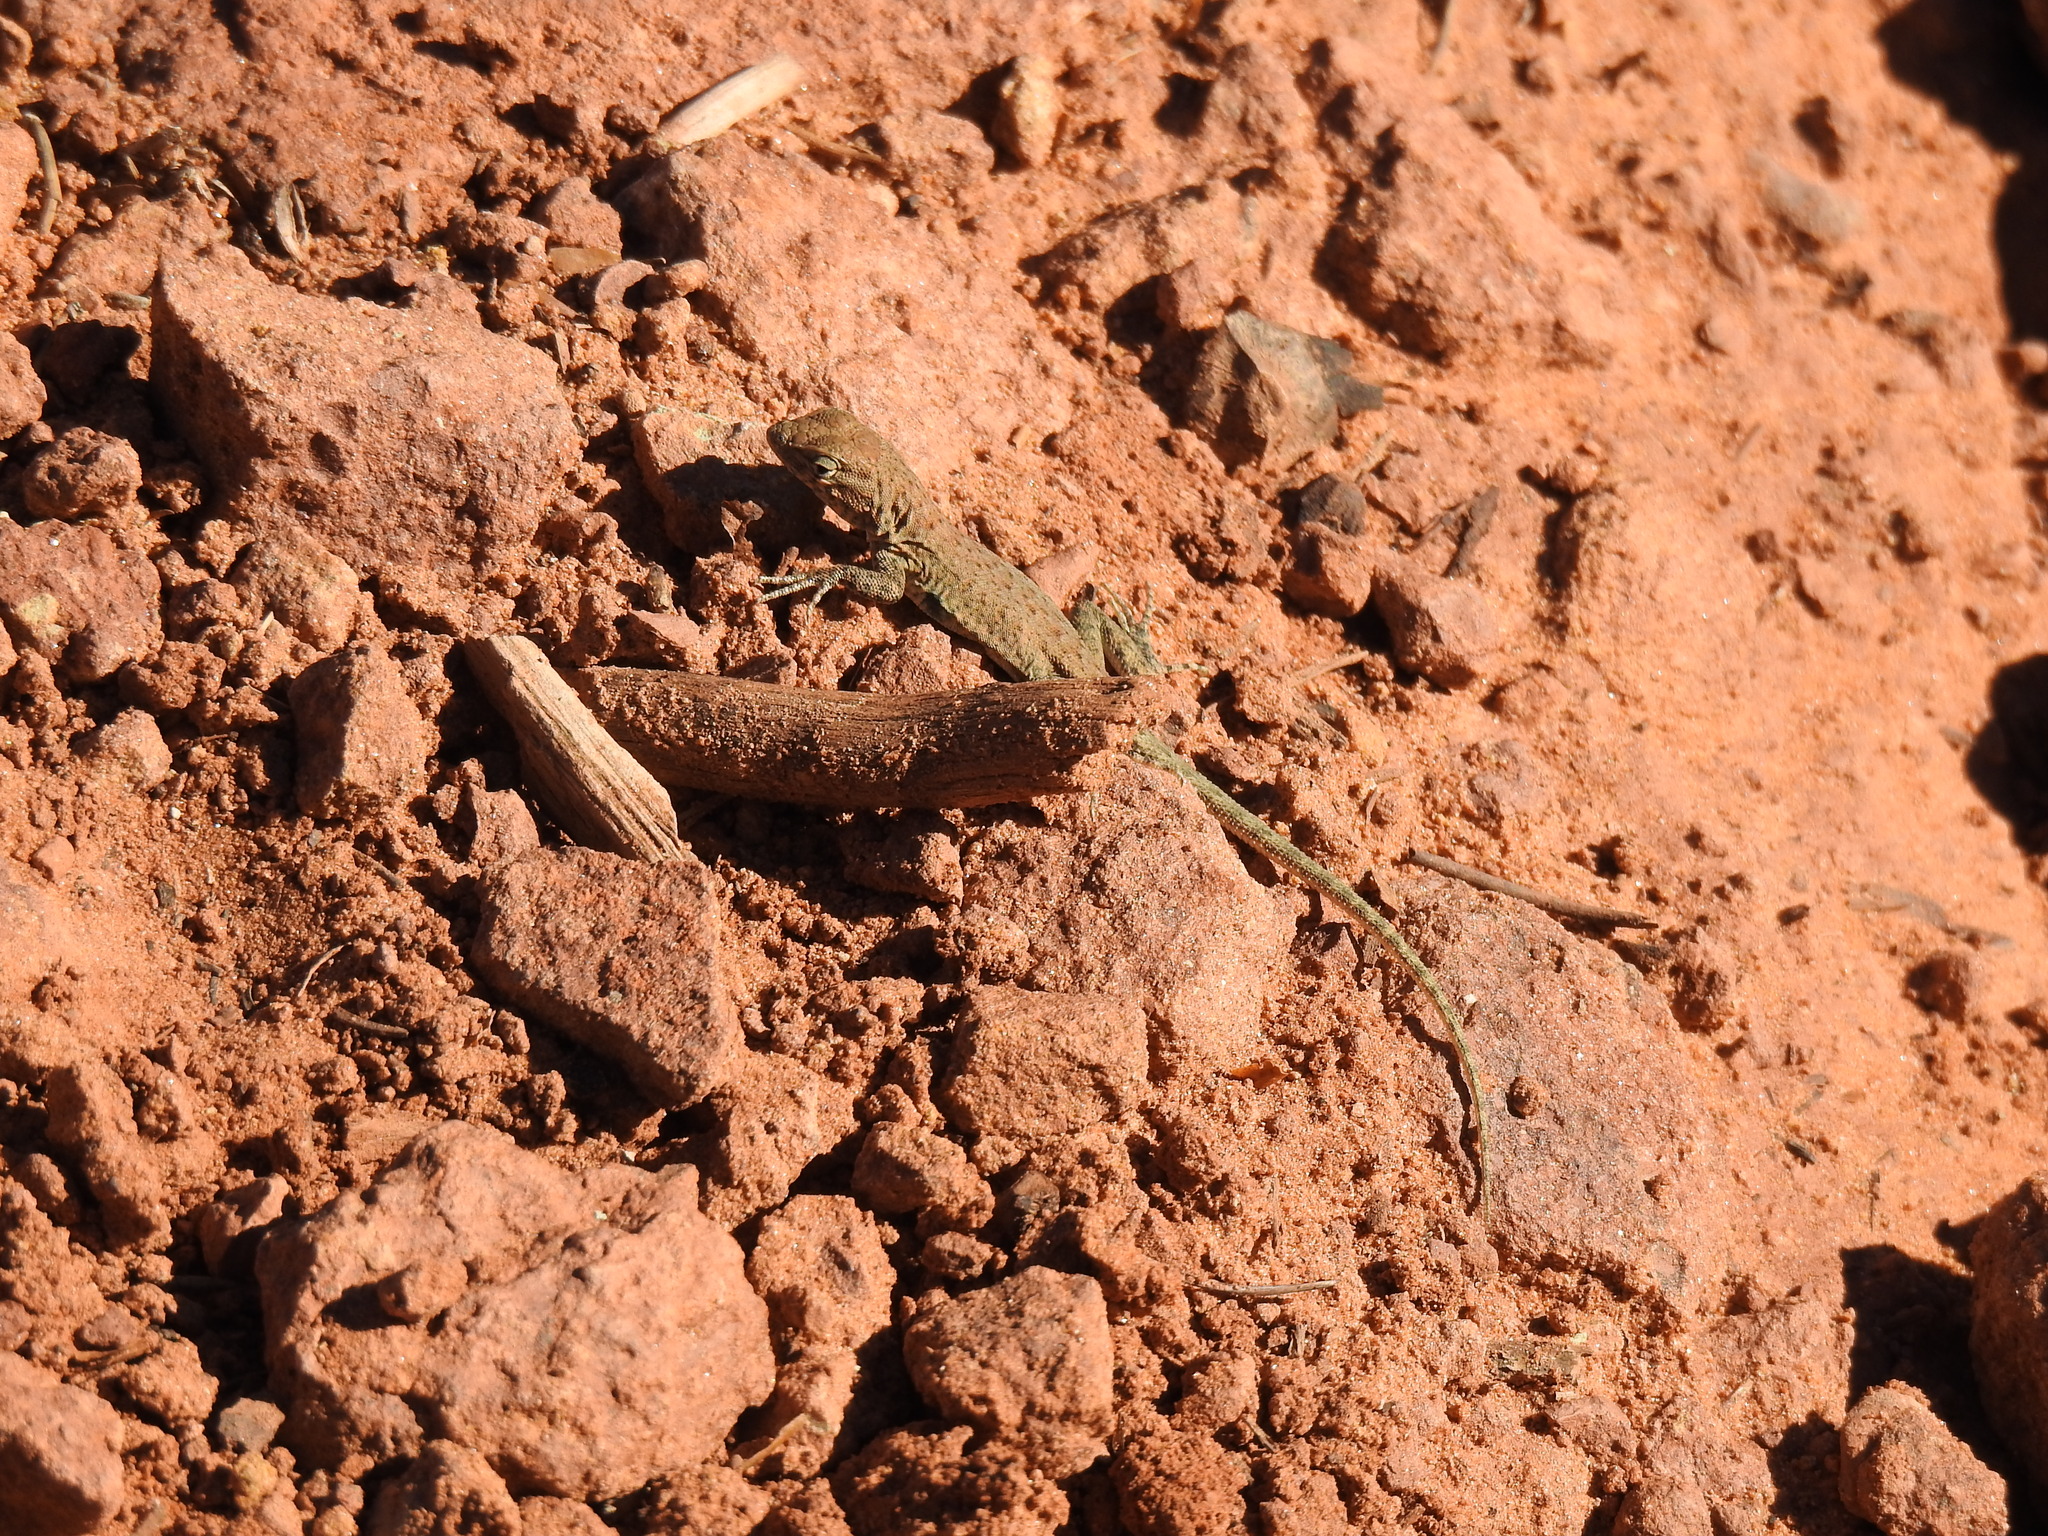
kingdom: Animalia
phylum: Chordata
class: Squamata
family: Phrynosomatidae
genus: Uta
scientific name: Uta stansburiana
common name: Side-blotched lizard
